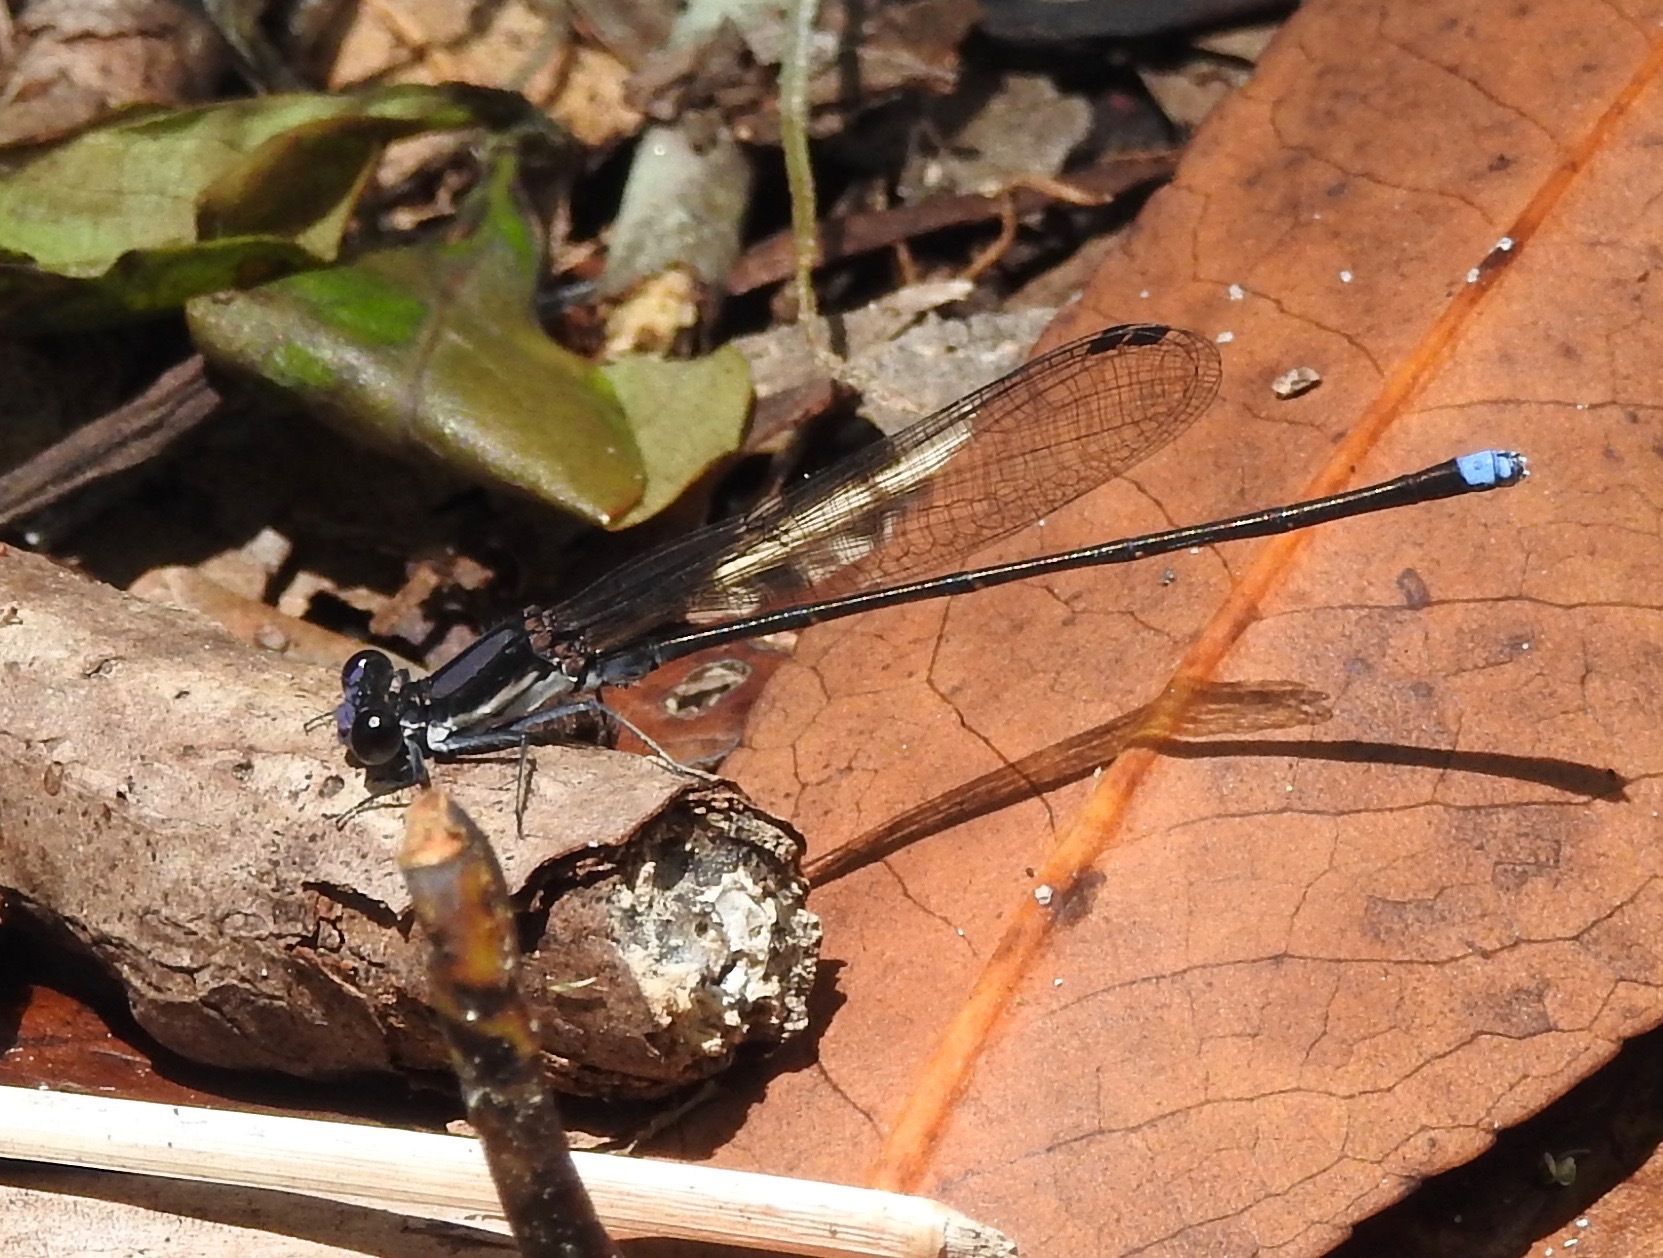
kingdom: Animalia
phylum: Arthropoda
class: Insecta
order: Odonata
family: Coenagrionidae
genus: Argia
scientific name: Argia tibialis
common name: Blue-tipped dancer
